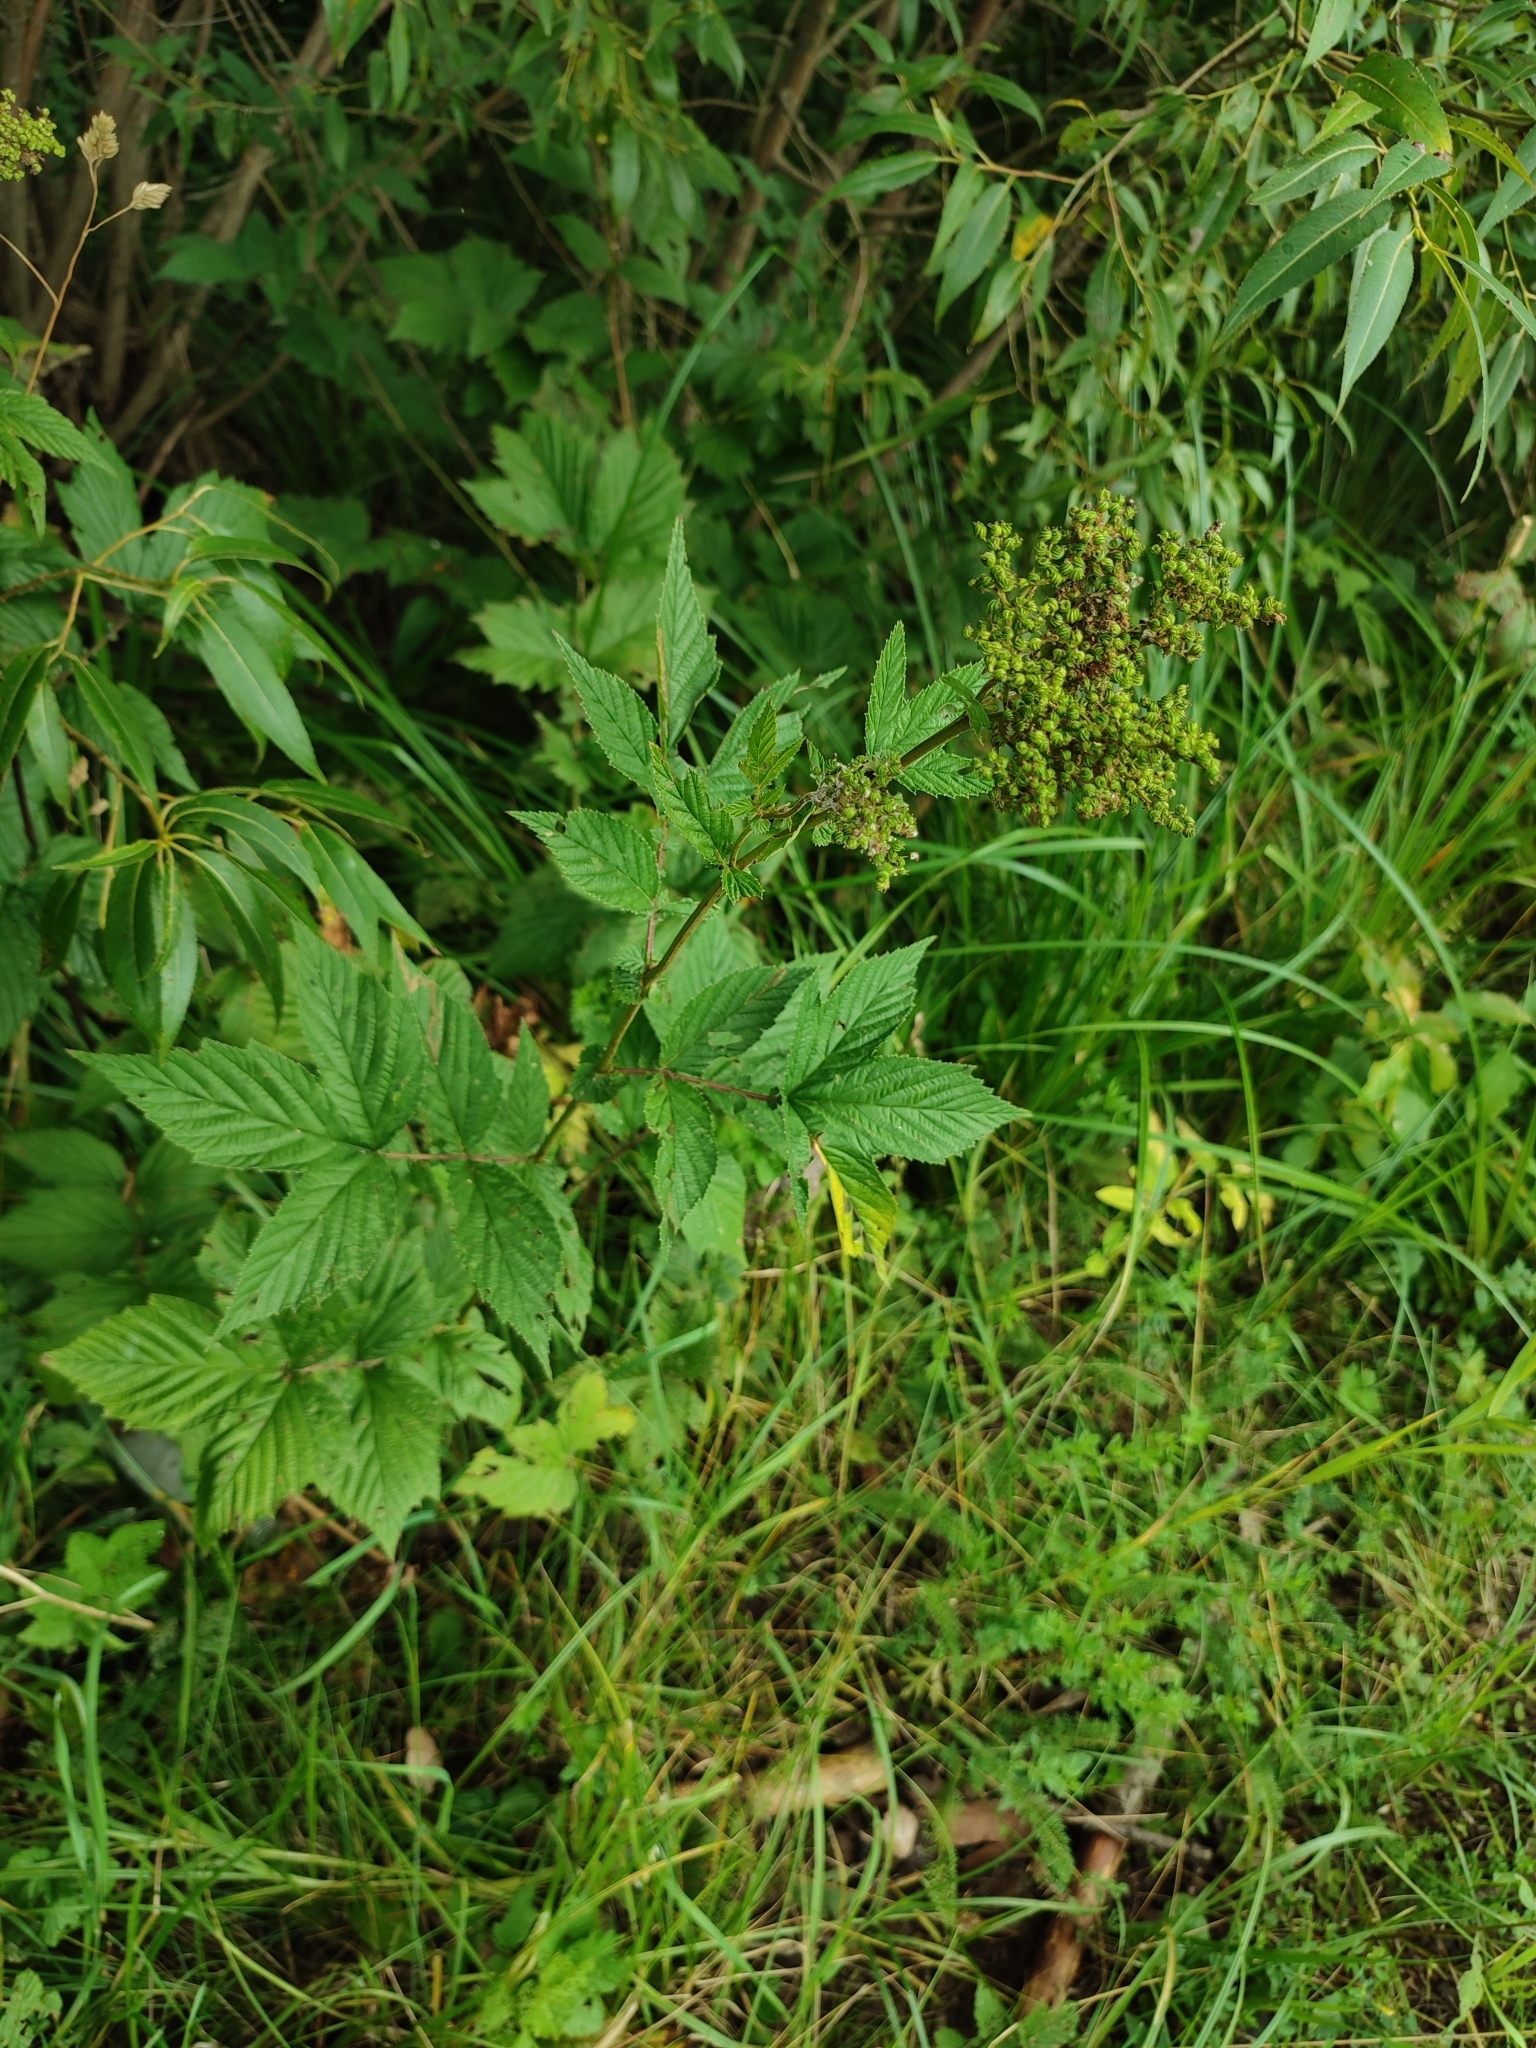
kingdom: Plantae
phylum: Tracheophyta
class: Magnoliopsida
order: Rosales
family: Rosaceae
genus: Filipendula
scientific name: Filipendula ulmaria
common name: Meadowsweet
